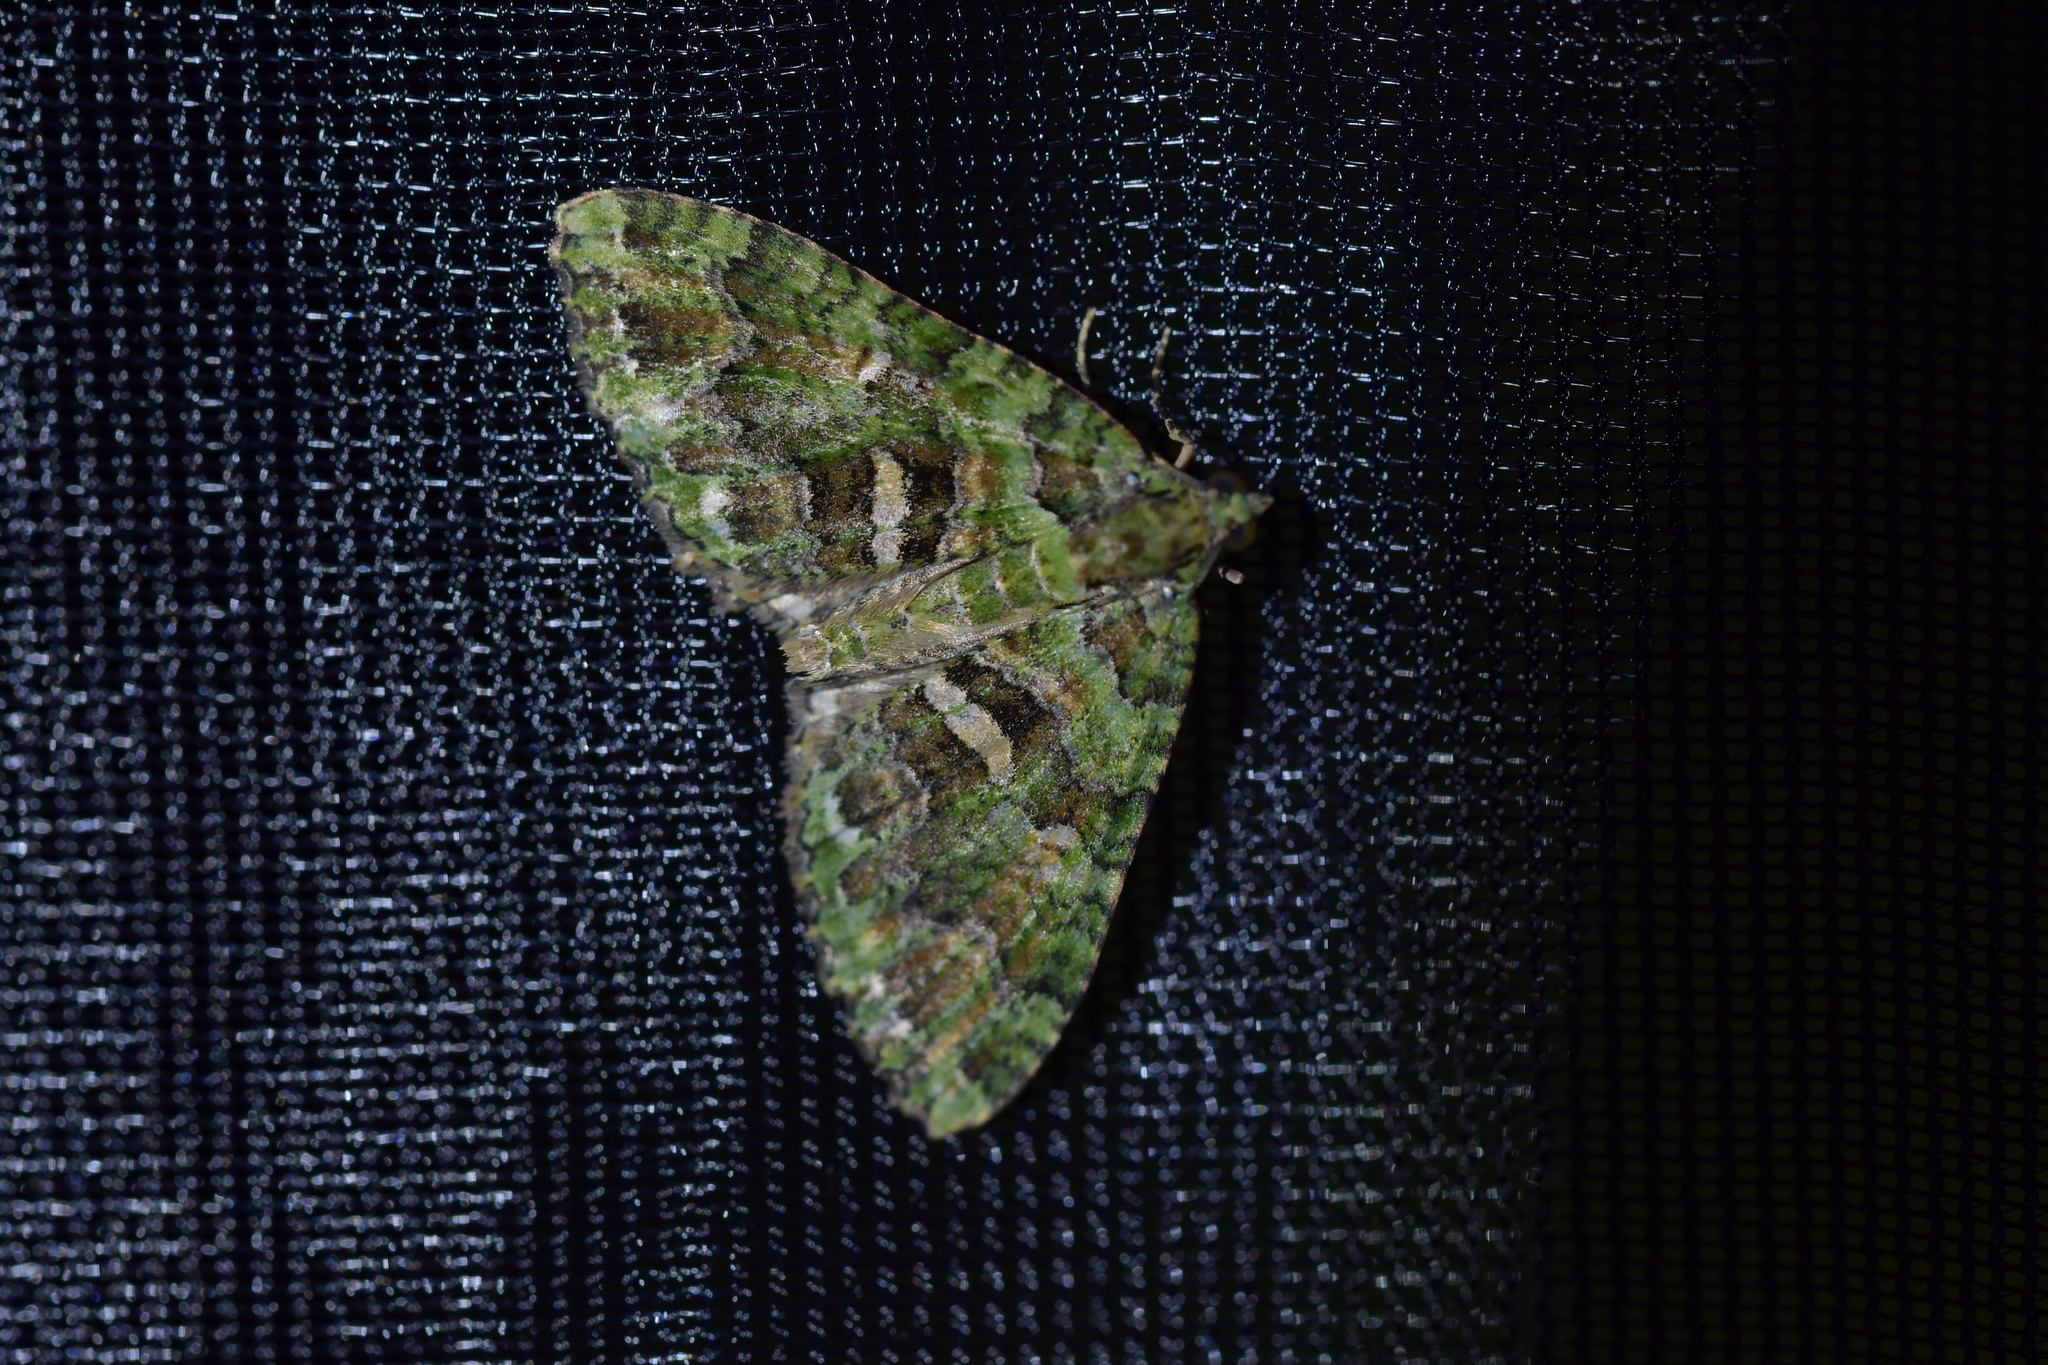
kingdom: Animalia
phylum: Arthropoda
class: Insecta
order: Lepidoptera
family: Geometridae
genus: Austrocidaria
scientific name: Austrocidaria similata
